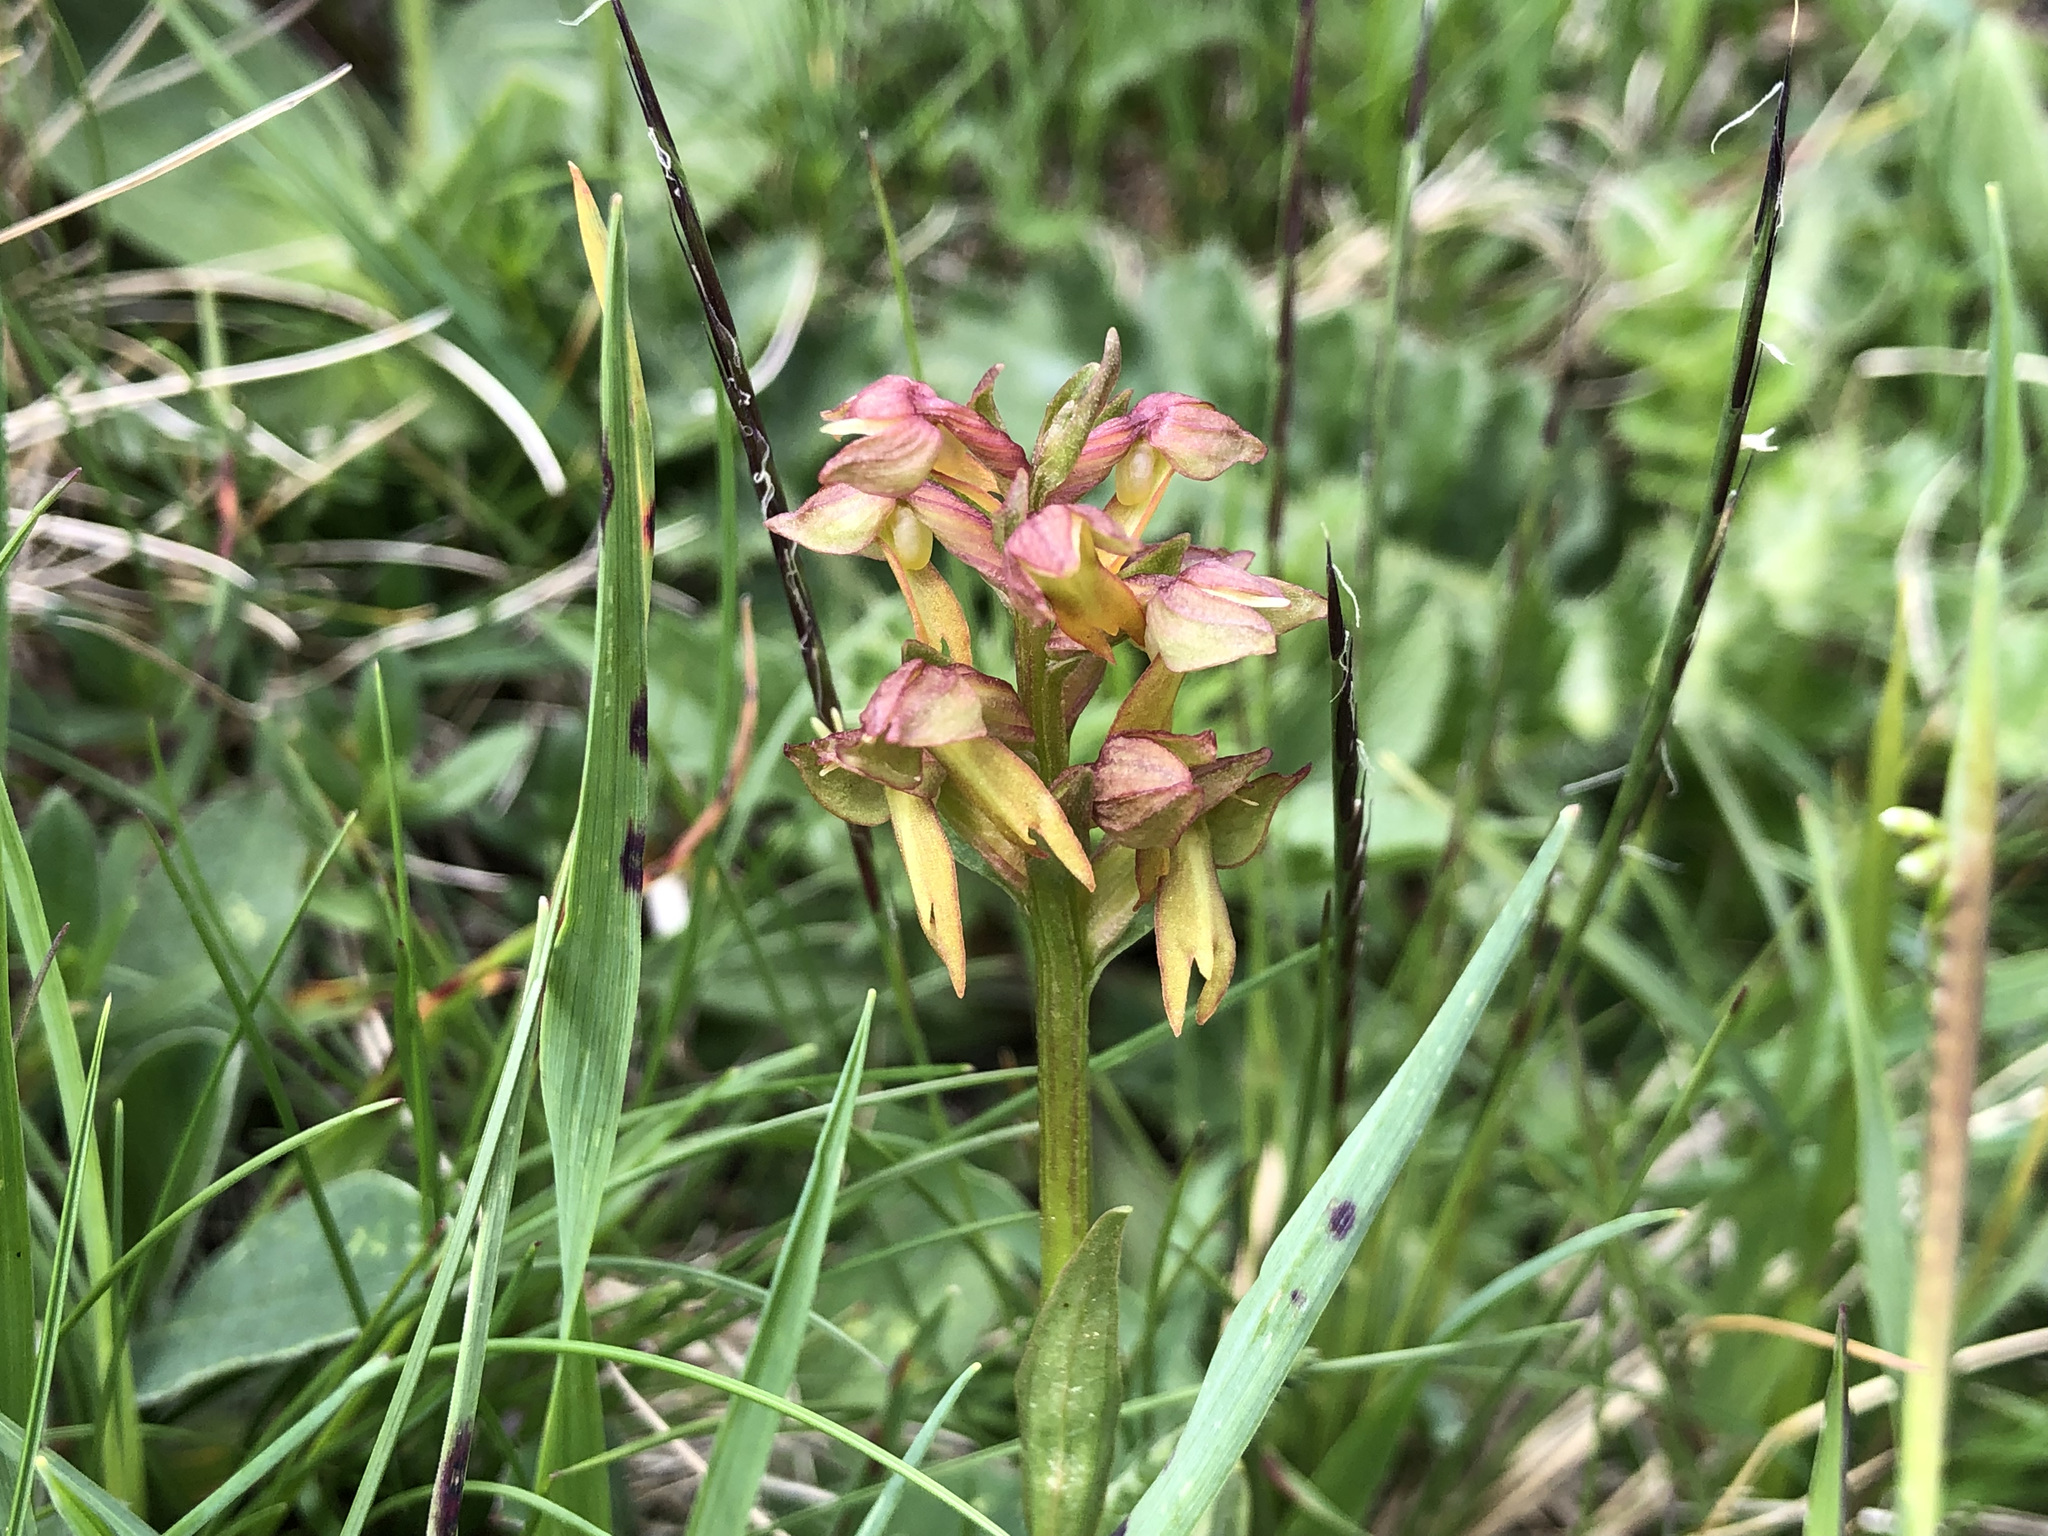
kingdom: Plantae
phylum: Tracheophyta
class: Liliopsida
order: Asparagales
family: Orchidaceae
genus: Dactylorhiza
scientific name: Dactylorhiza viridis
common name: Longbract frog orchid
